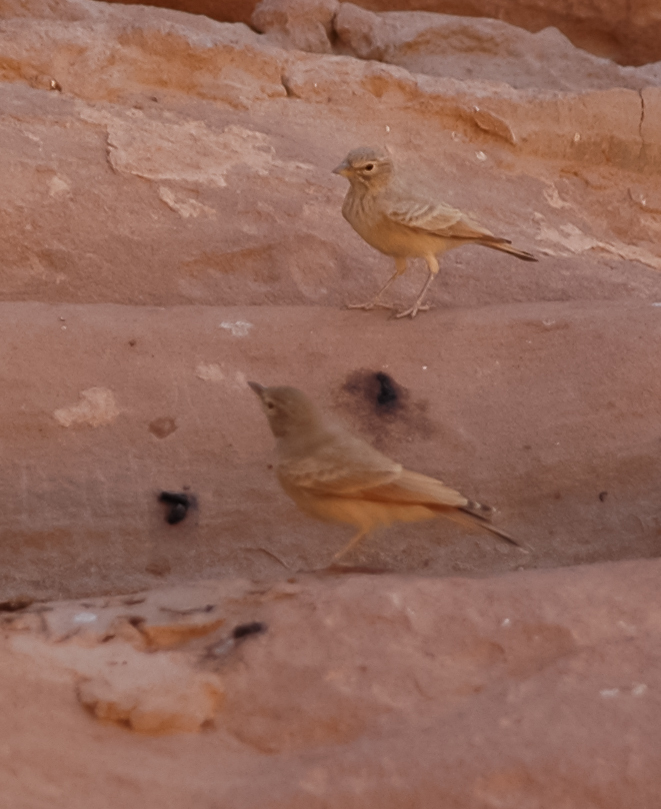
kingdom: Animalia
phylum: Chordata
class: Aves
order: Passeriformes
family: Alaudidae
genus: Ammomanes
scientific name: Ammomanes deserti
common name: Desert lark
